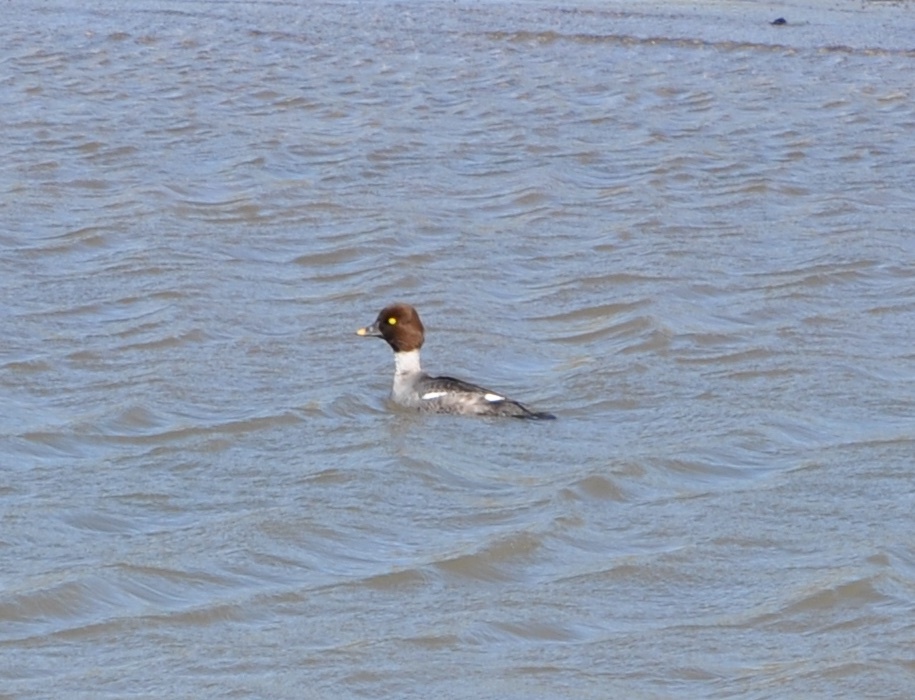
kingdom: Animalia
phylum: Chordata
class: Aves
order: Anseriformes
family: Anatidae
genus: Bucephala
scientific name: Bucephala clangula
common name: Common goldeneye
